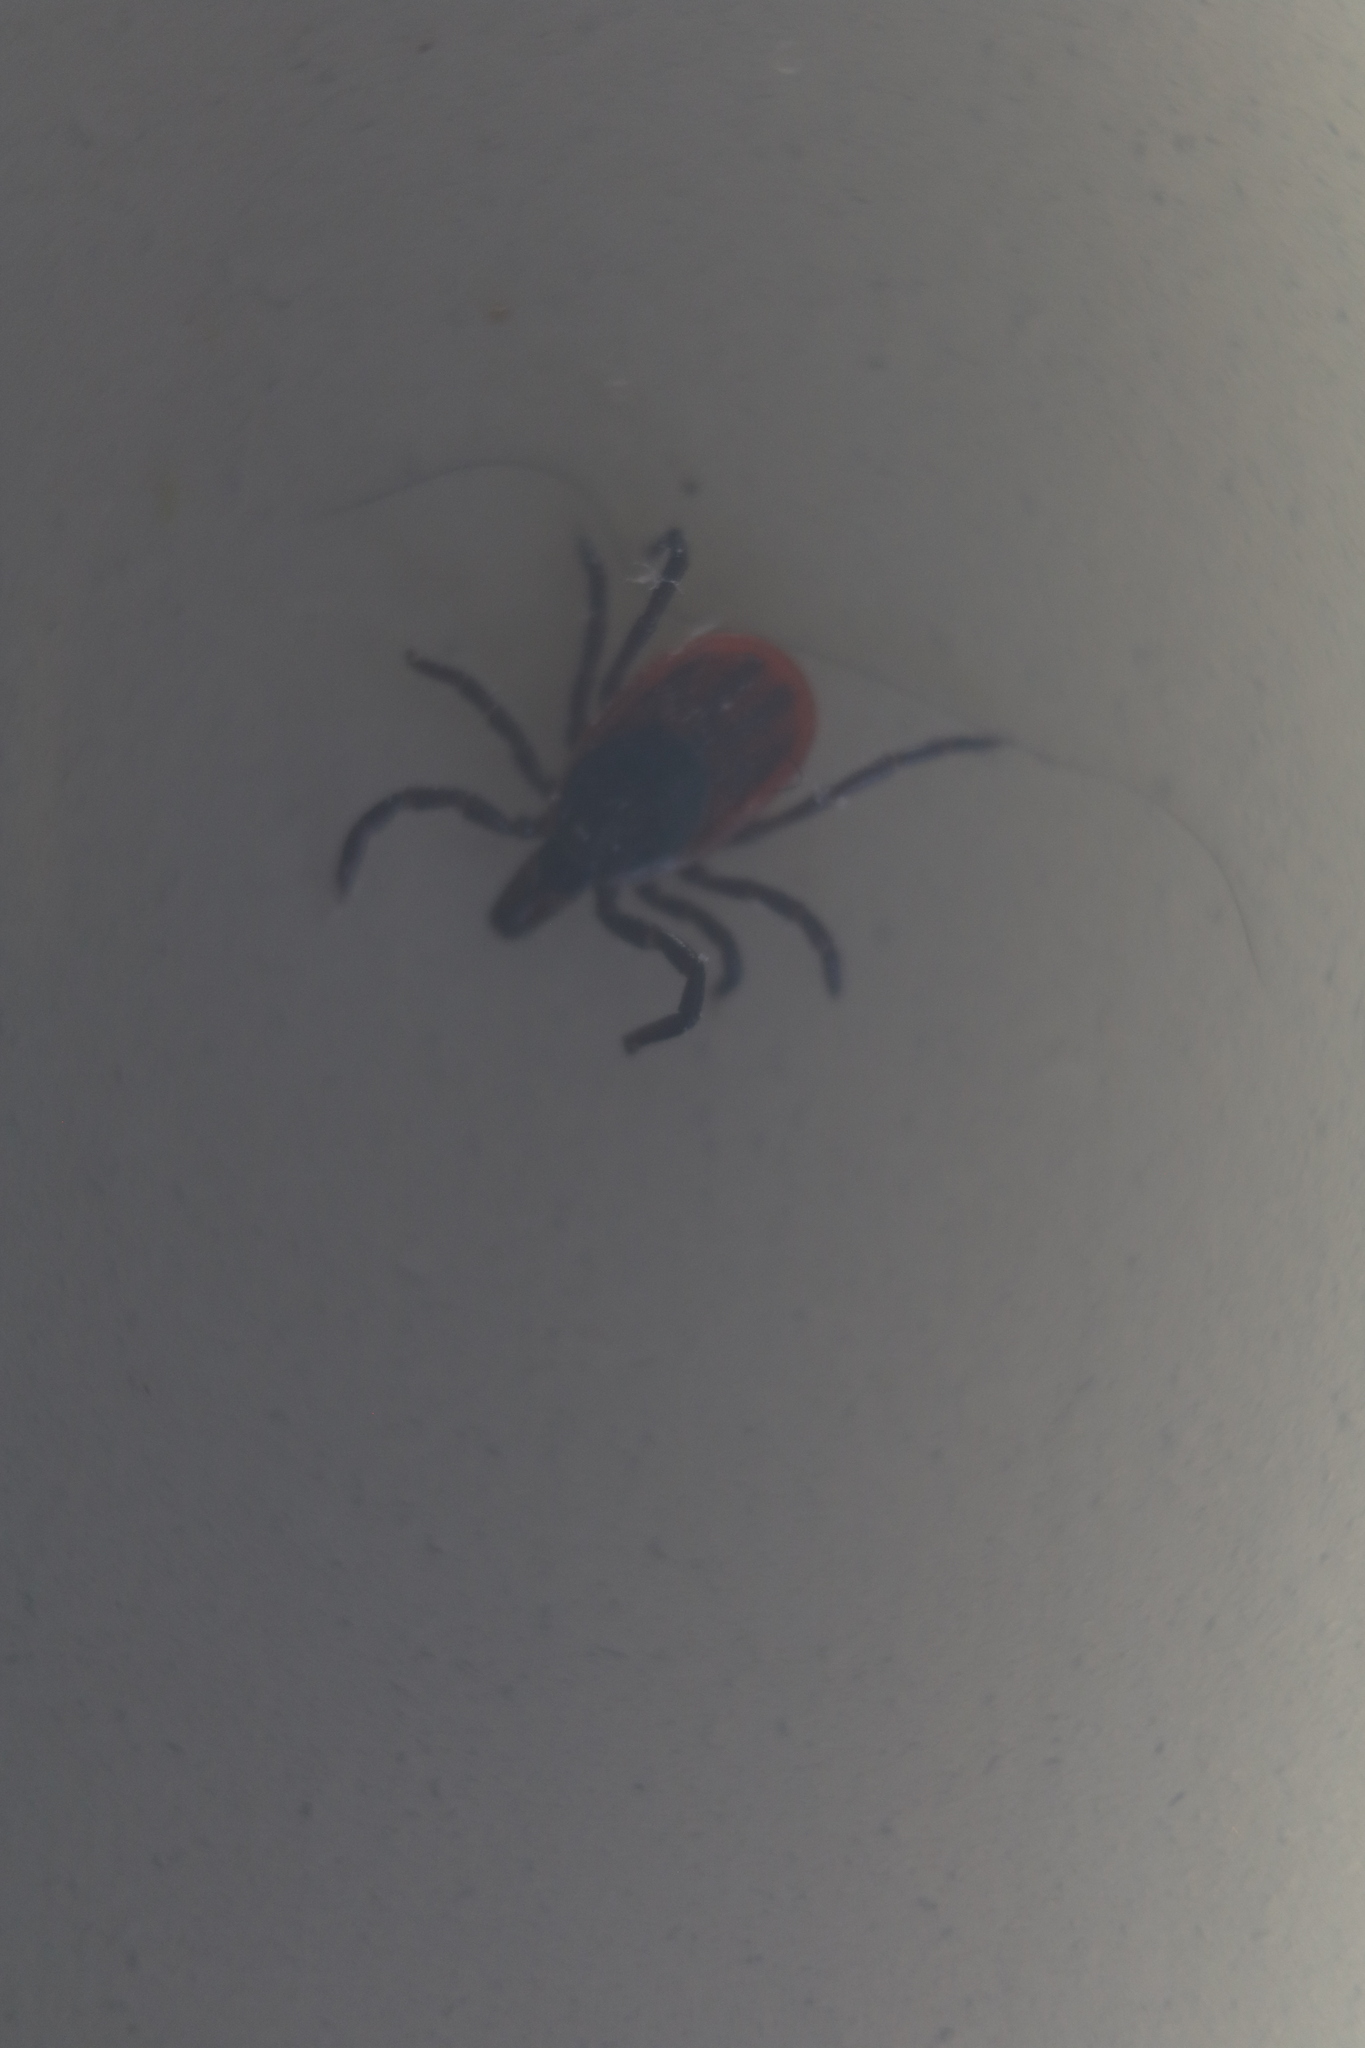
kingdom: Animalia
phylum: Arthropoda
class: Arachnida
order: Ixodida
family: Ixodidae
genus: Ixodes
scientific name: Ixodes scapularis
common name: Black legged tick
